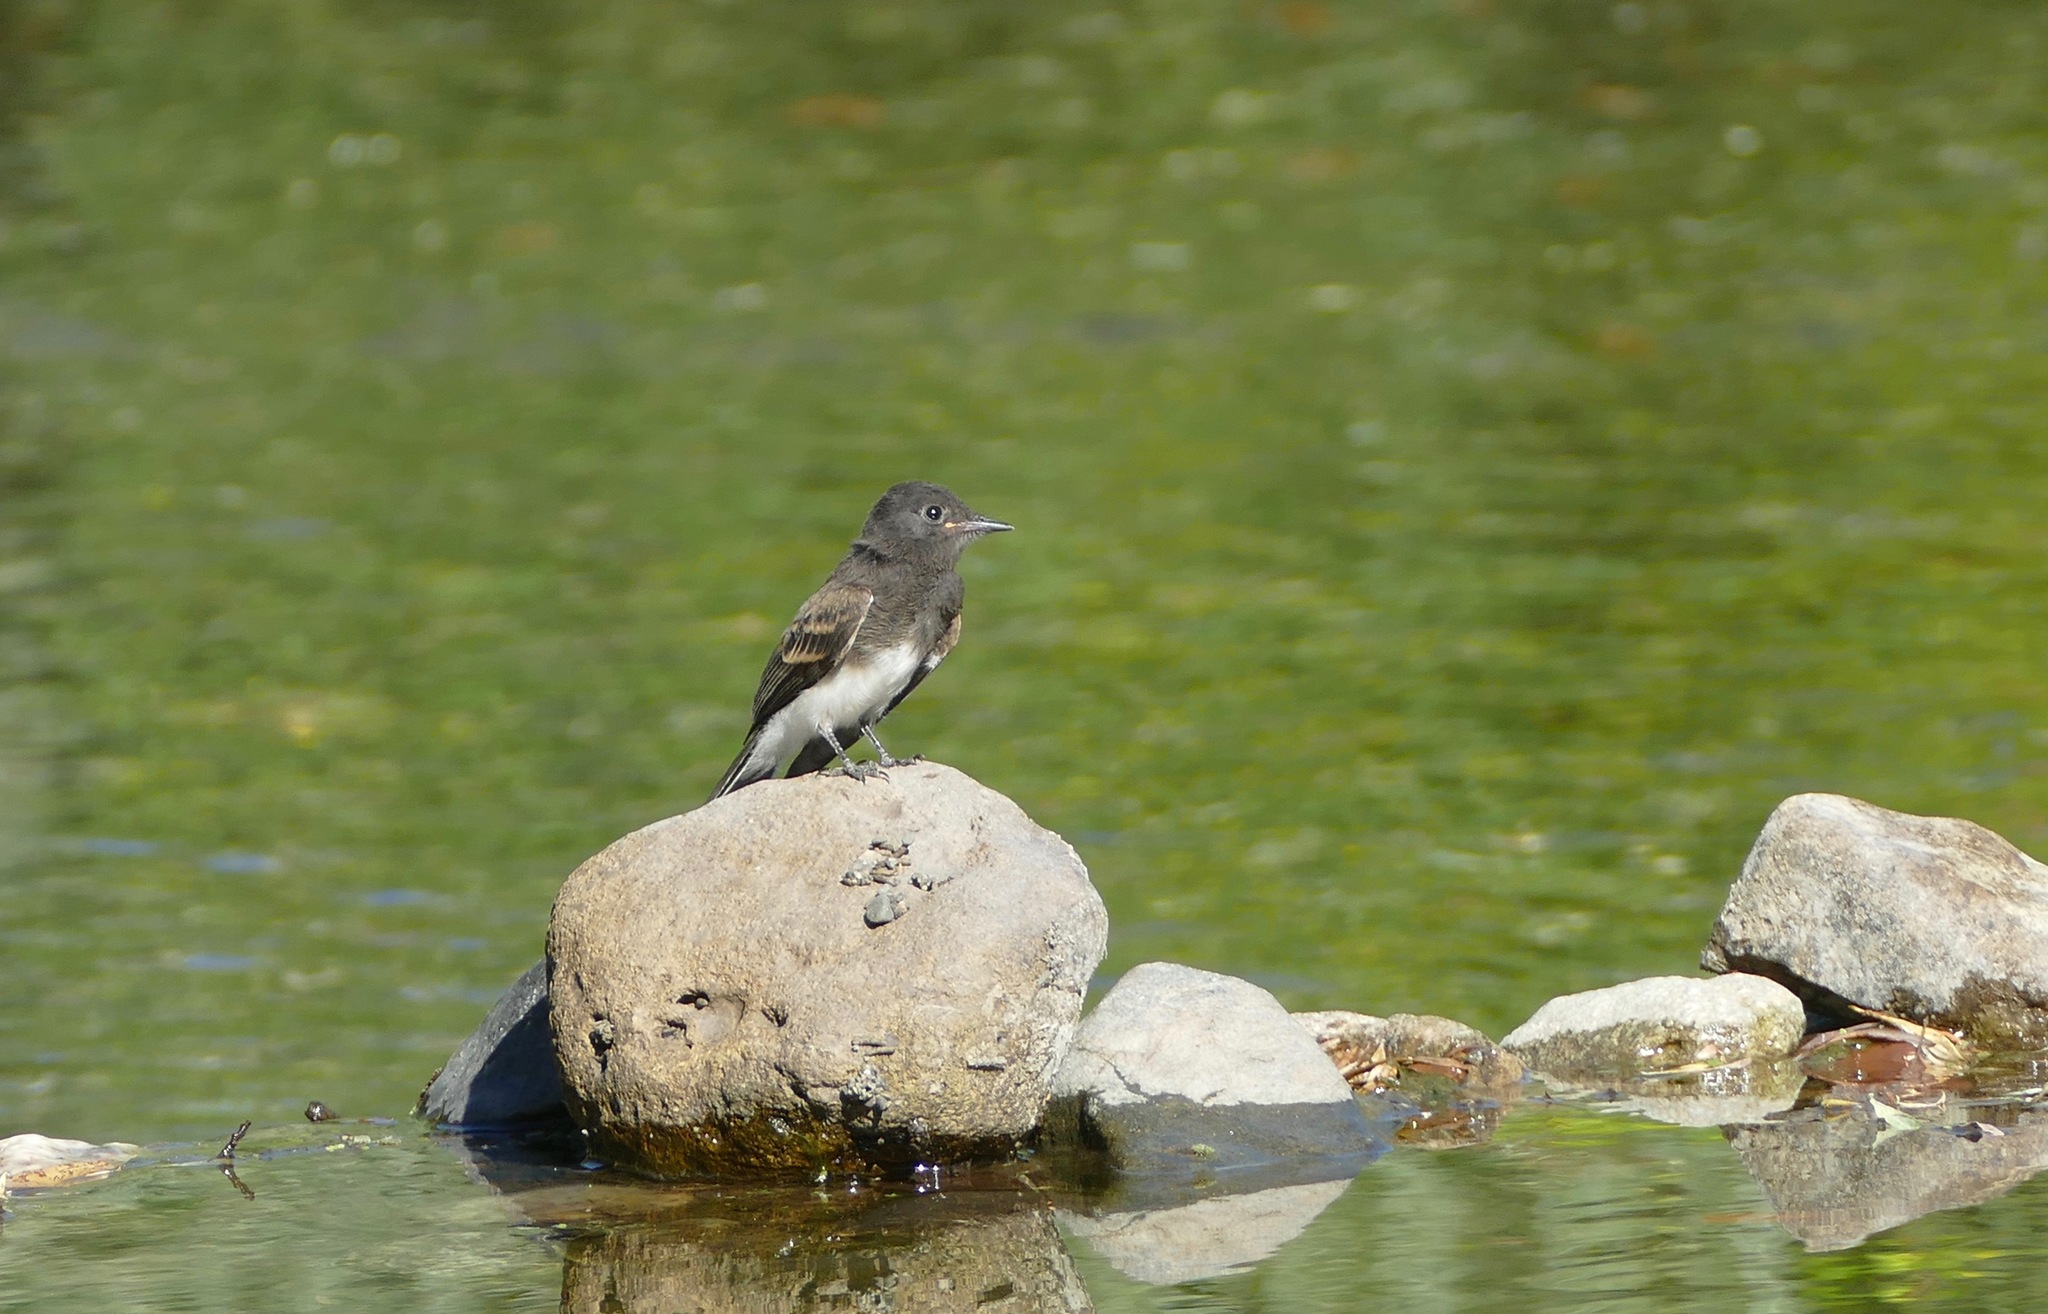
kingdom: Animalia
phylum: Chordata
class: Aves
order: Passeriformes
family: Tyrannidae
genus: Sayornis
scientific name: Sayornis nigricans
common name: Black phoebe
